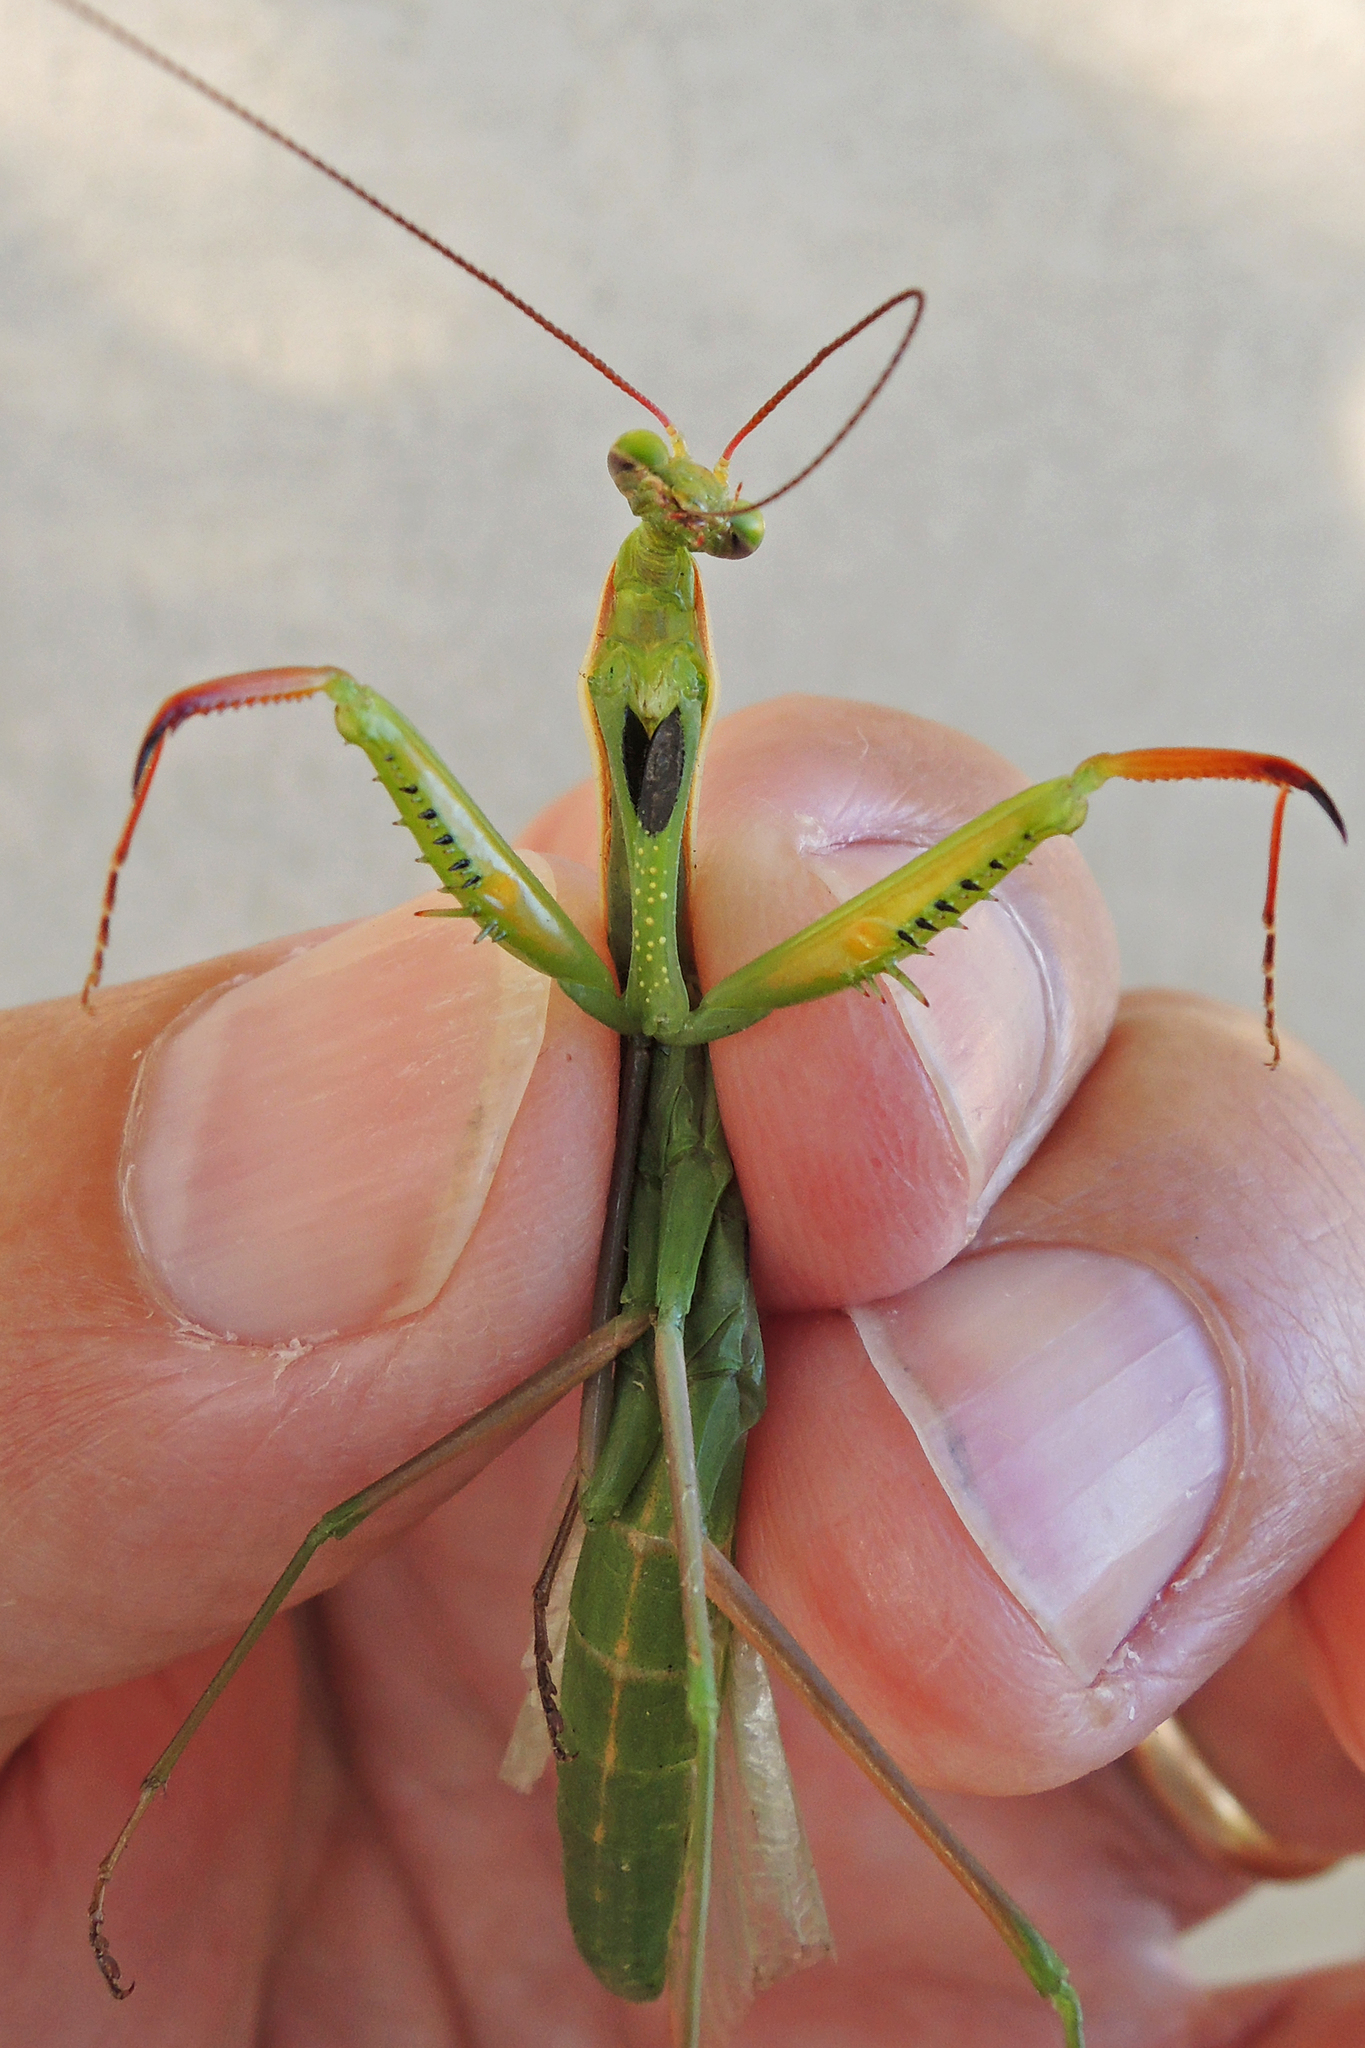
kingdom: Animalia
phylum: Arthropoda
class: Insecta
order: Mantodea
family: Mantidae
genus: Mantis
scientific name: Mantis religiosa
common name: Praying mantis
